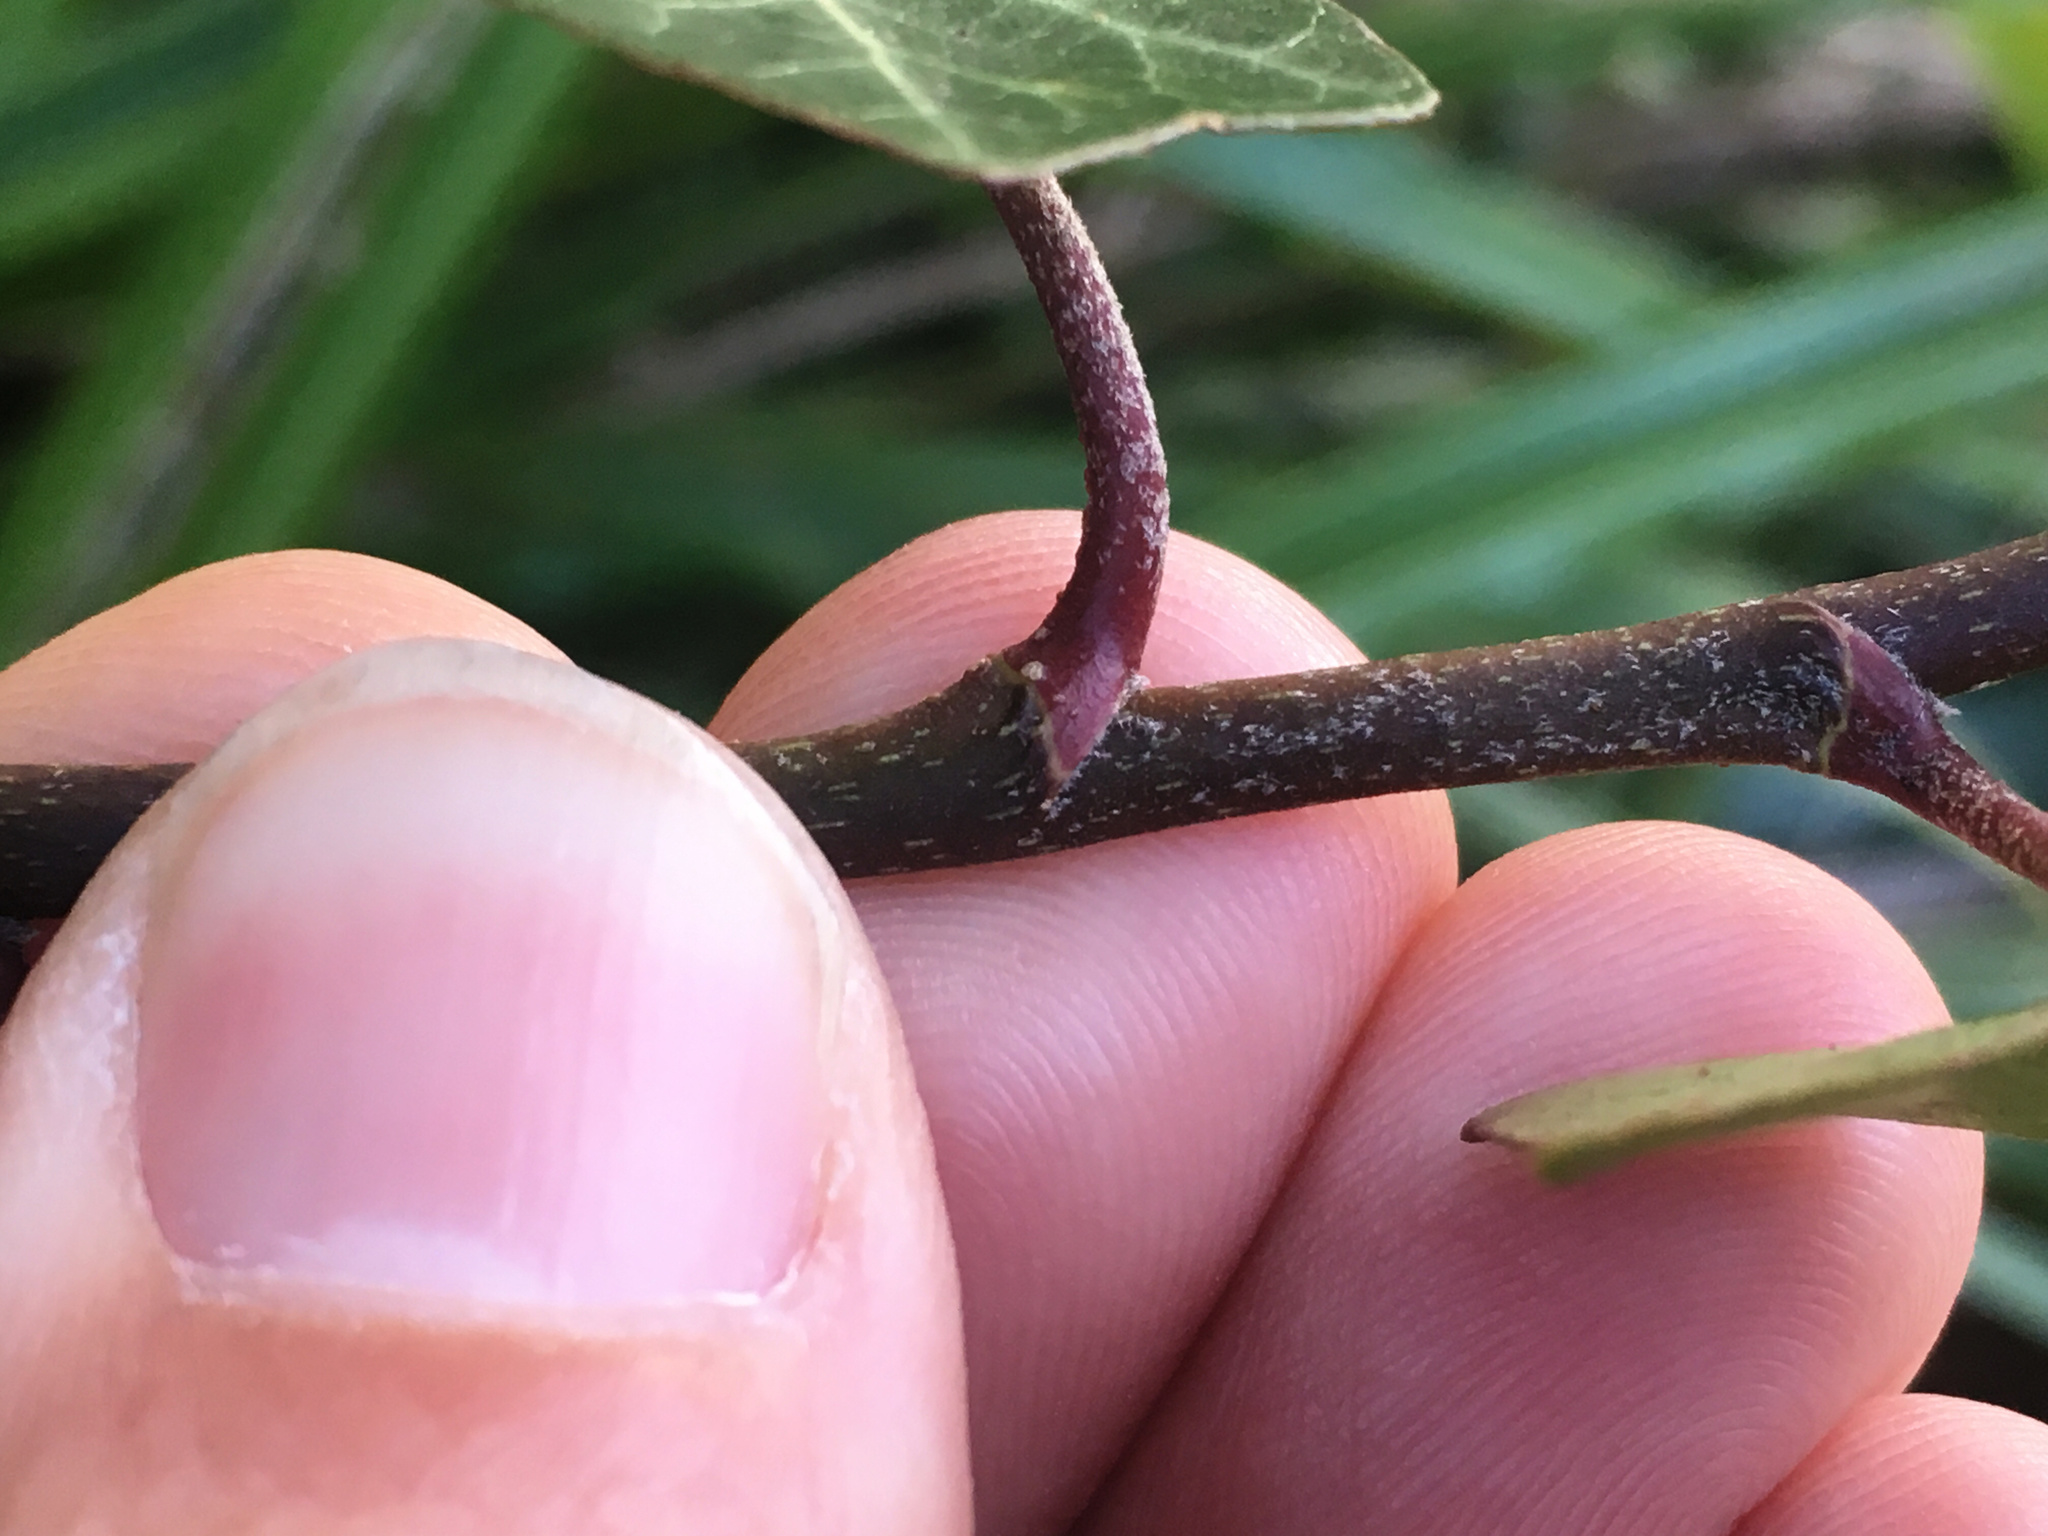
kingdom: Plantae
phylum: Tracheophyta
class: Magnoliopsida
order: Apiales
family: Araliaceae
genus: Hedera
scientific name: Hedera helix
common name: Ivy
